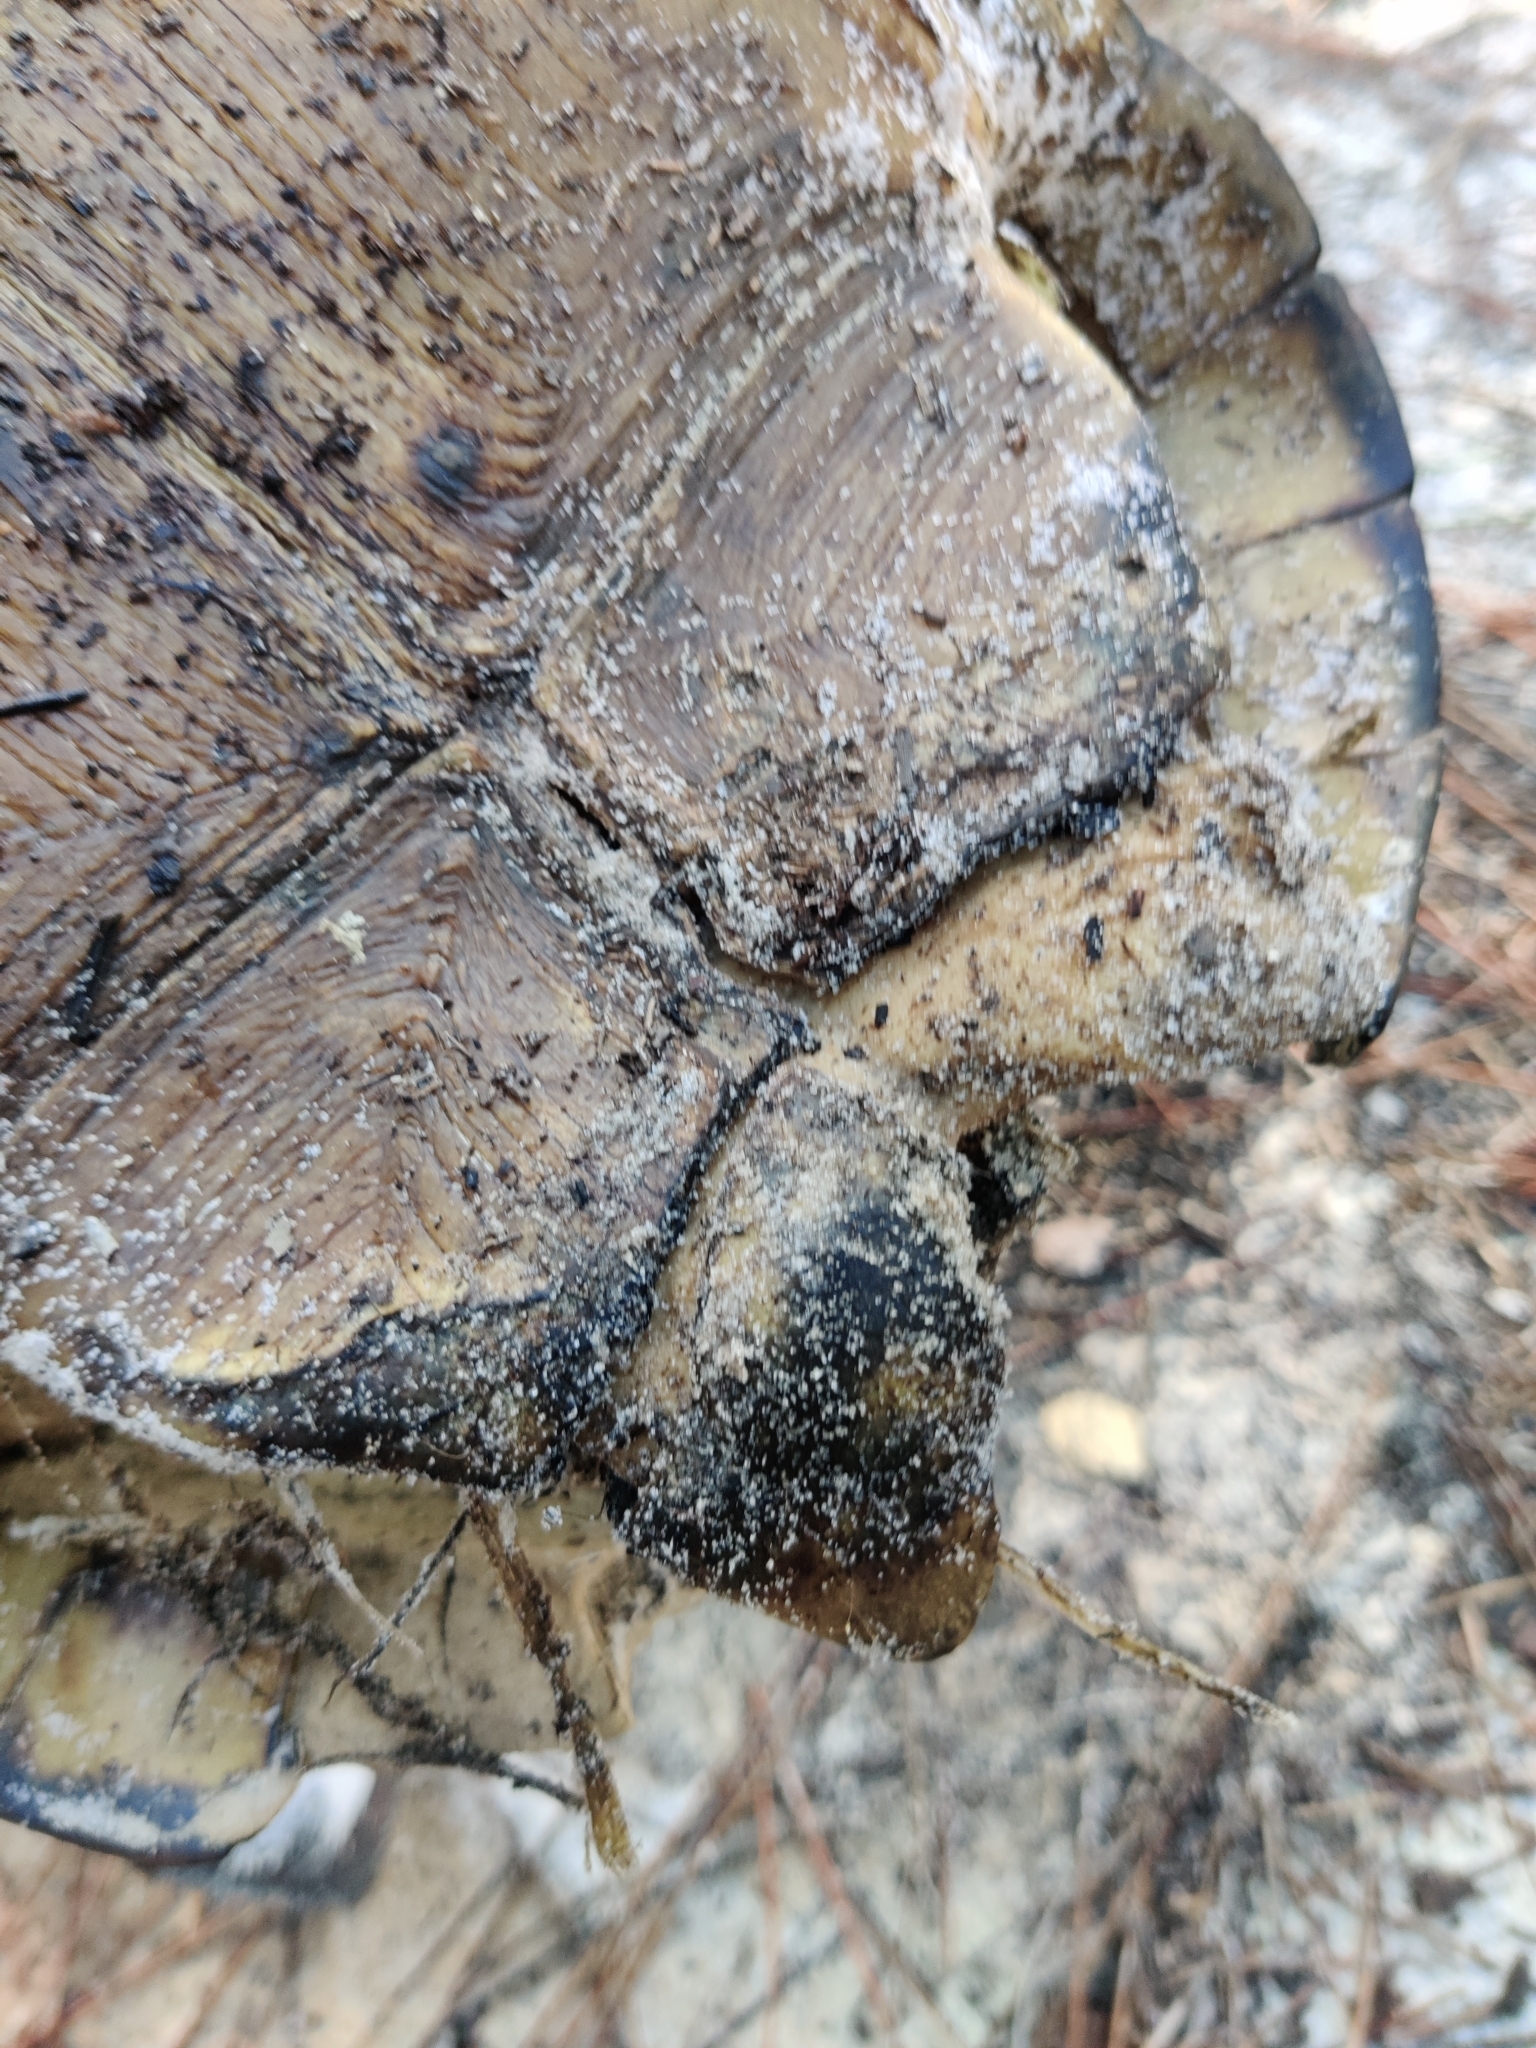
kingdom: Animalia
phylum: Chordata
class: Testudines
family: Testudinidae
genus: Gopherus
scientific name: Gopherus polyphemus
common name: Florida gopher tortoise
